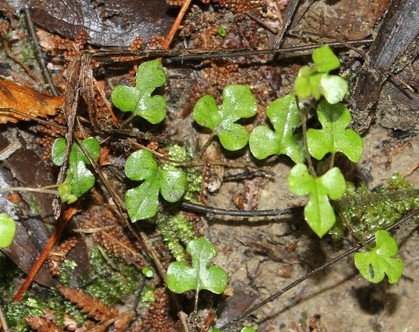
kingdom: Plantae
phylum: Tracheophyta
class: Magnoliopsida
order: Caryophyllales
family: Polygonaceae
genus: Muehlenbeckia
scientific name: Muehlenbeckia australis
